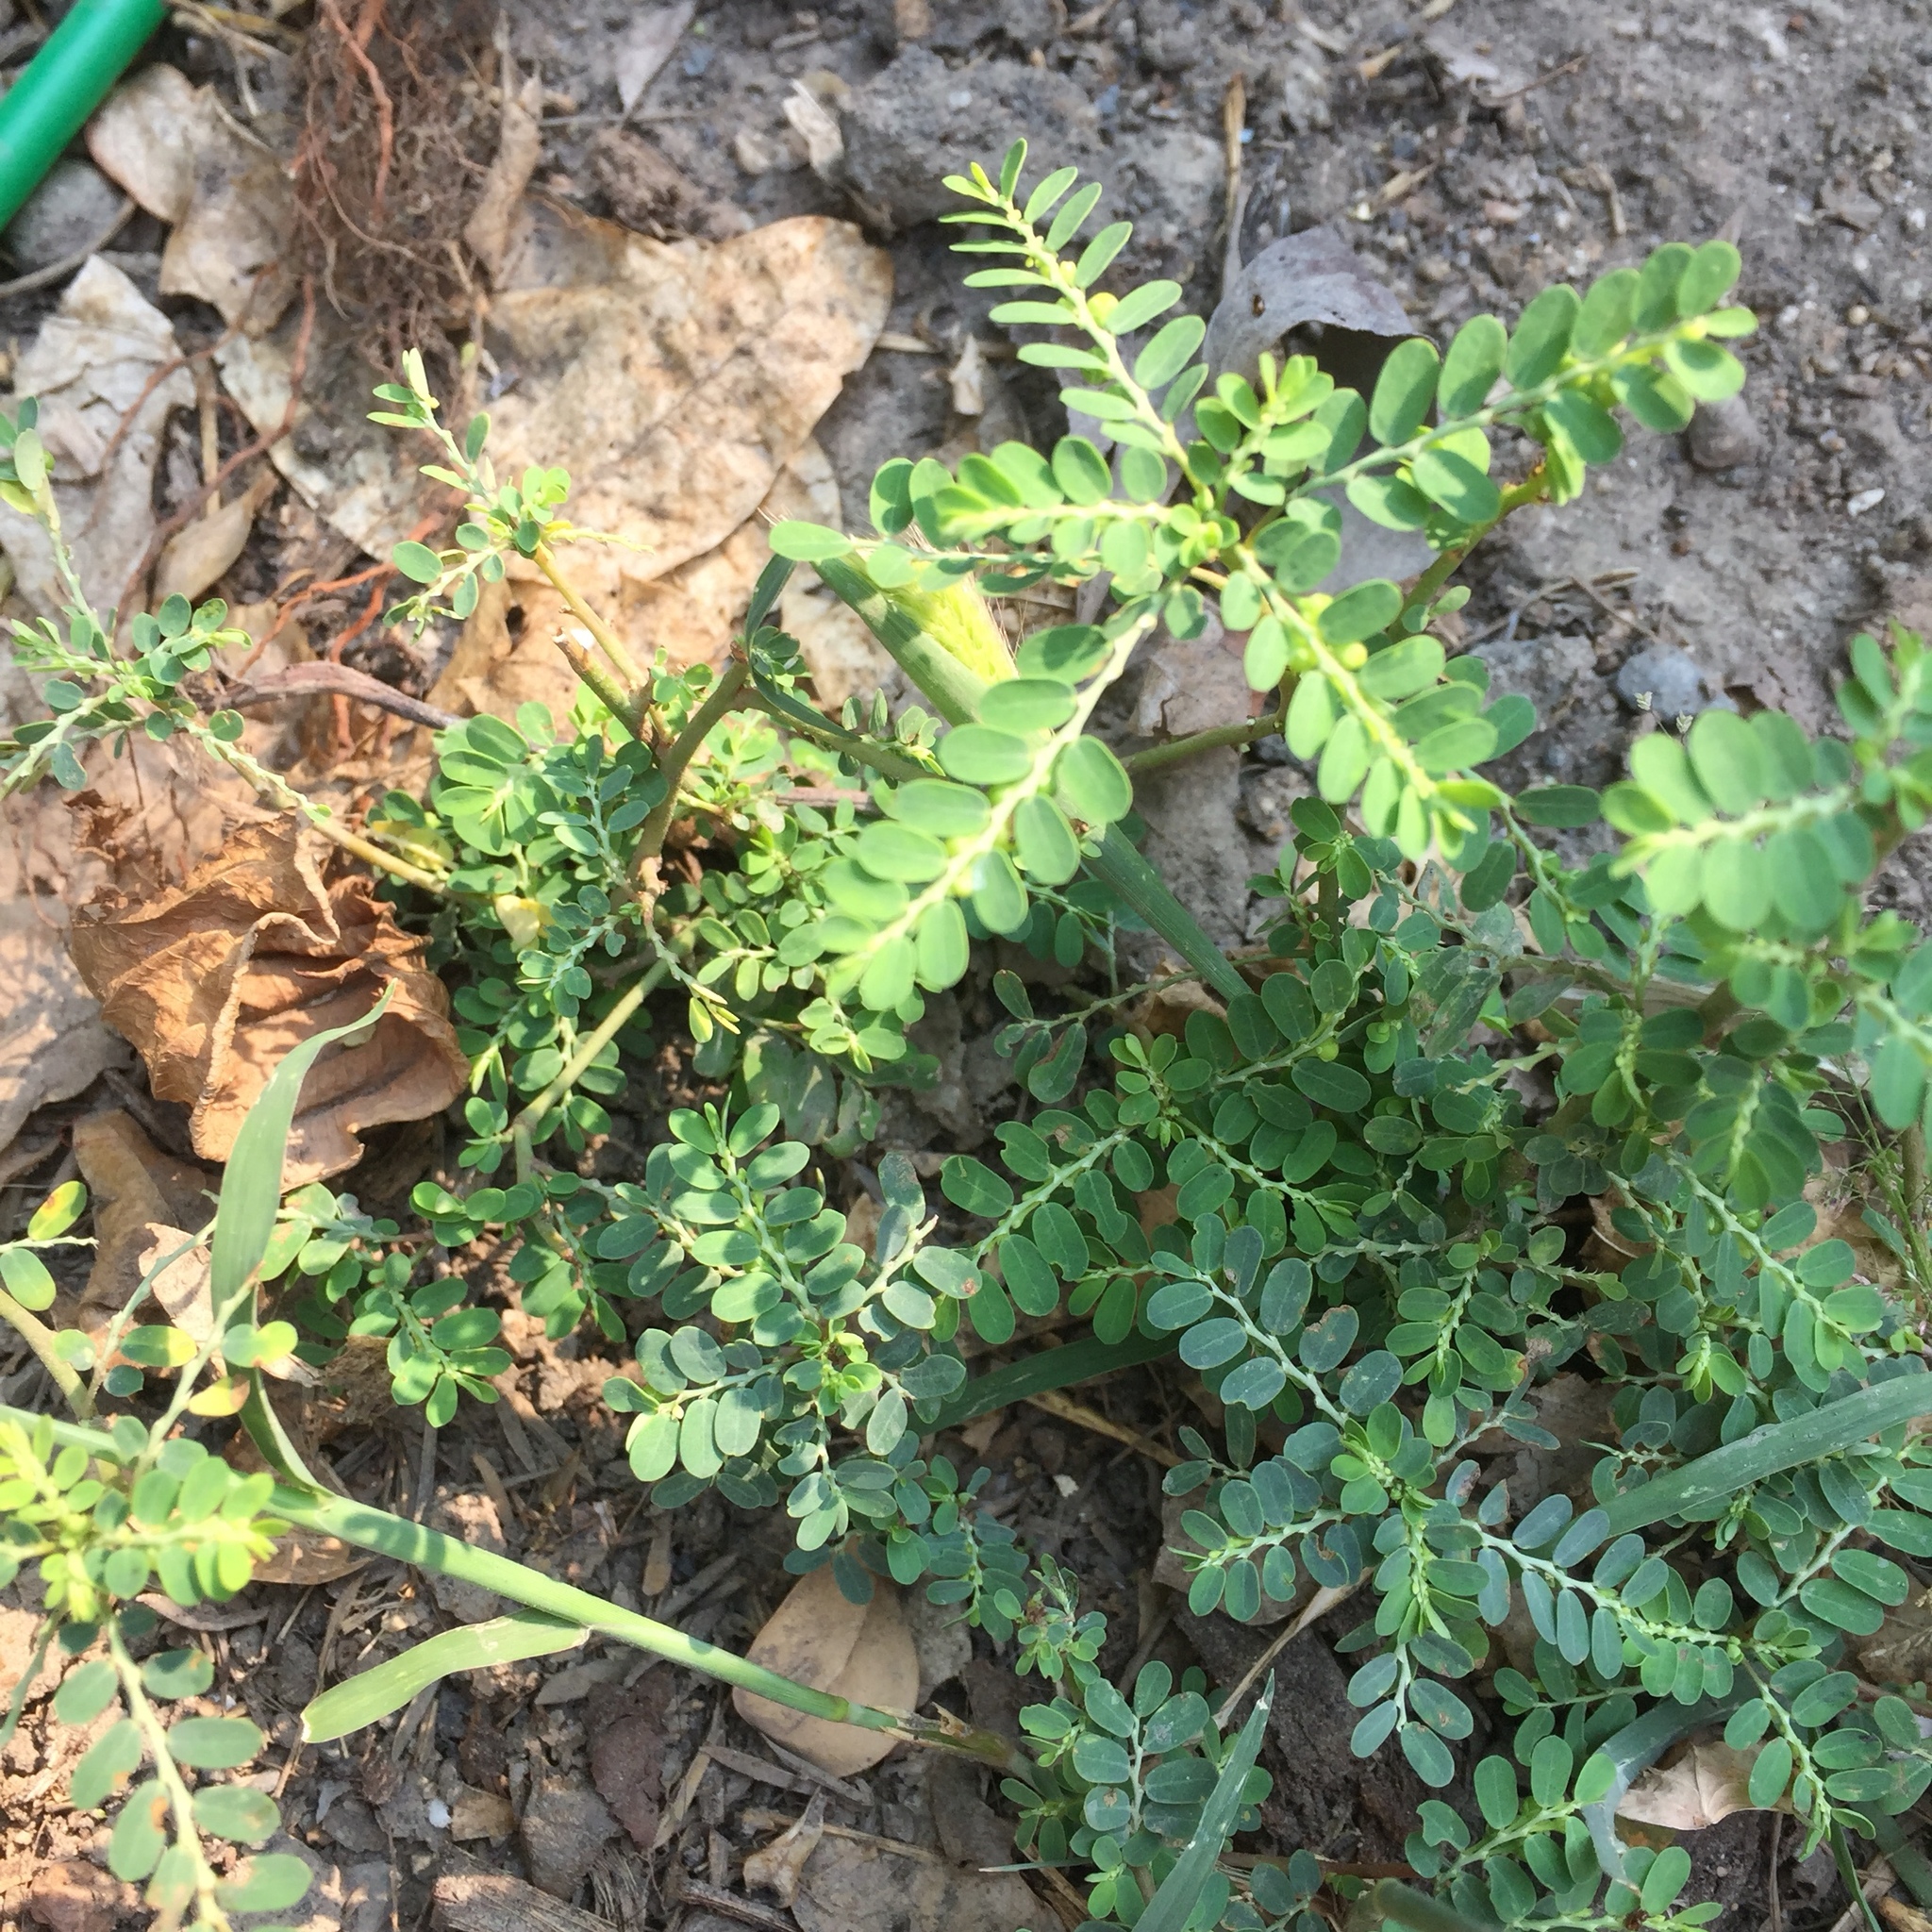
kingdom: Plantae
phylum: Tracheophyta
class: Magnoliopsida
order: Malpighiales
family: Phyllanthaceae
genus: Phyllanthus
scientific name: Phyllanthus urinaria
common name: Chamber bitter
